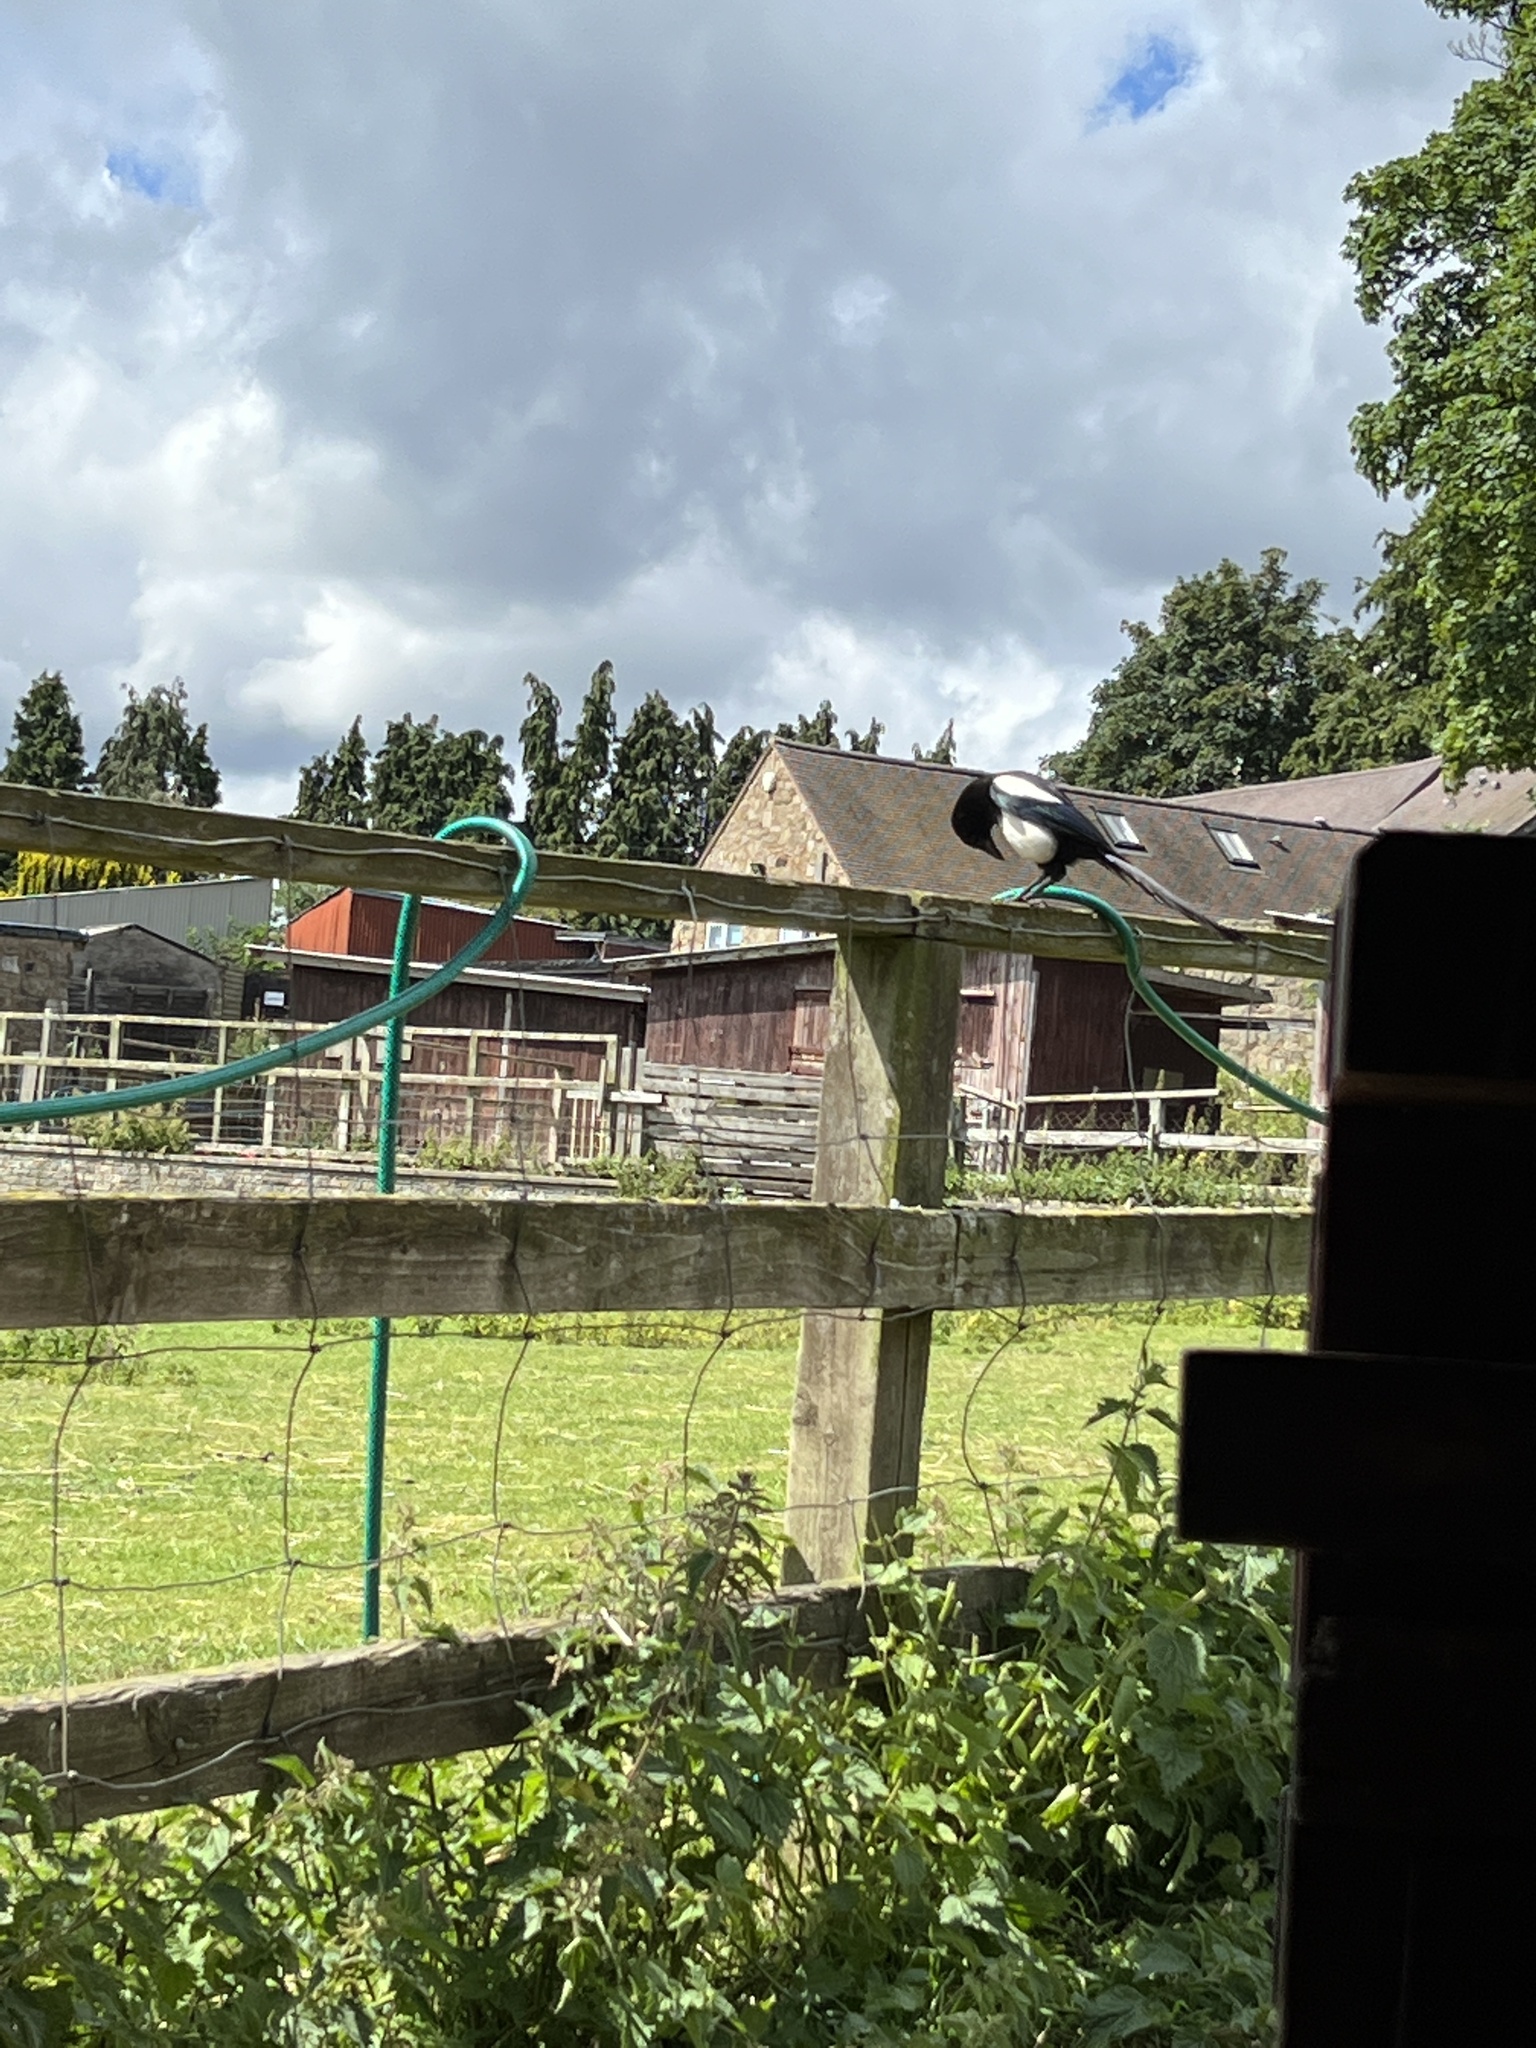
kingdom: Animalia
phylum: Chordata
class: Aves
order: Passeriformes
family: Corvidae
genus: Pica
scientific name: Pica pica
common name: Eurasian magpie
